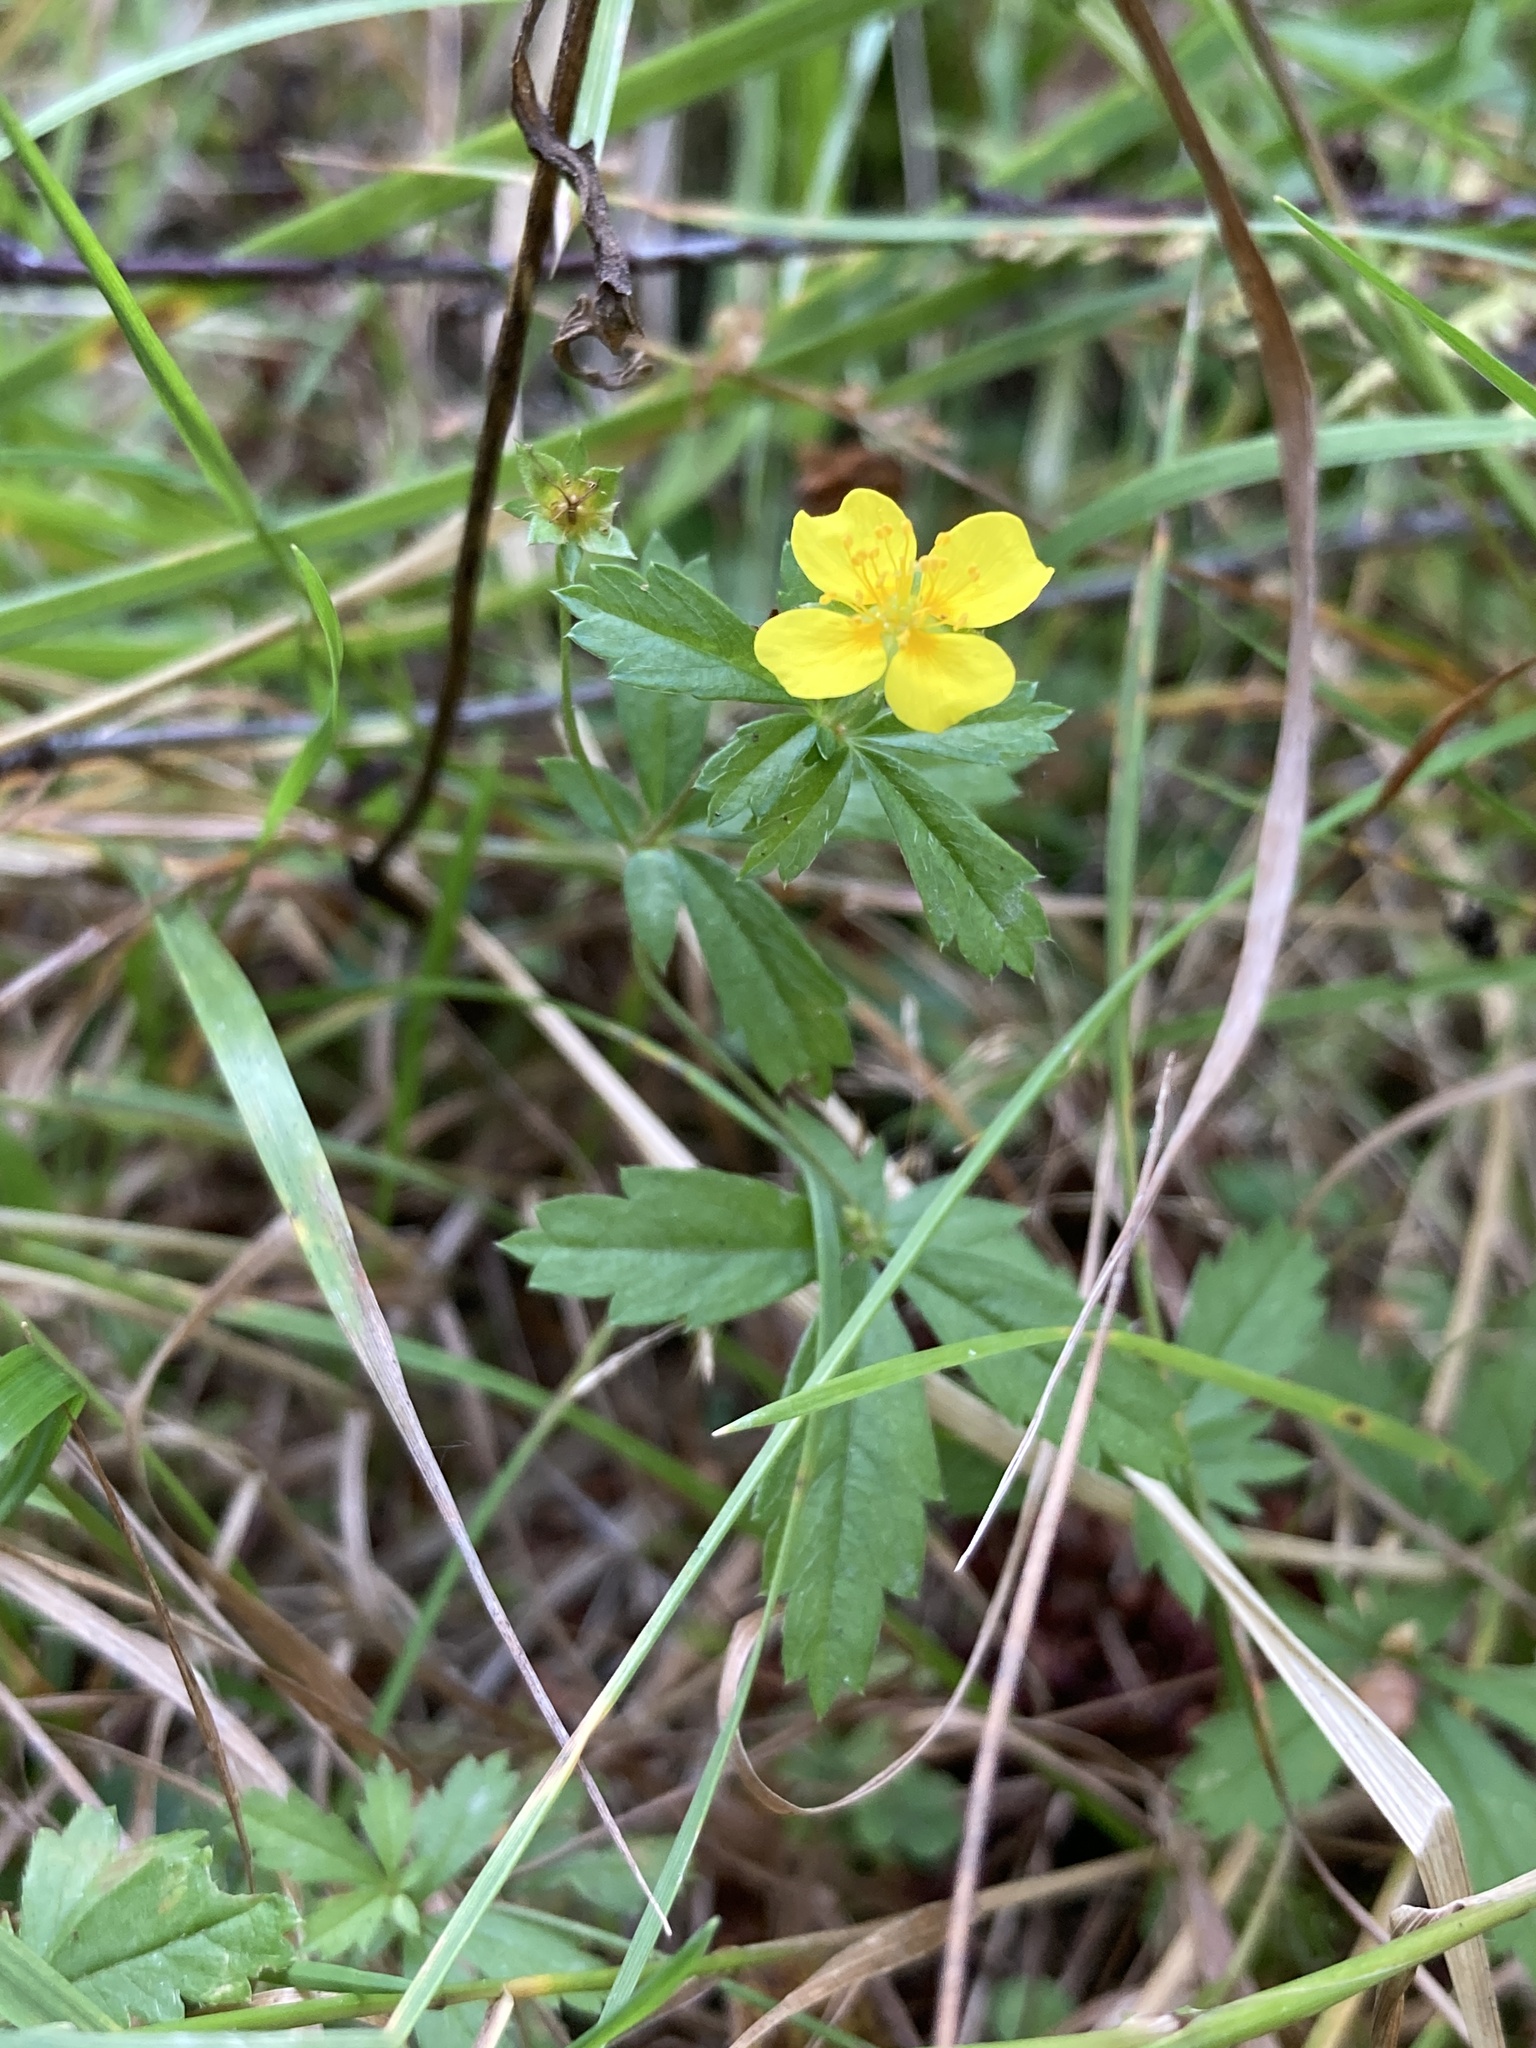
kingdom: Plantae
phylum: Tracheophyta
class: Magnoliopsida
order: Rosales
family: Rosaceae
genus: Potentilla
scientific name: Potentilla erecta
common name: Tormentil
